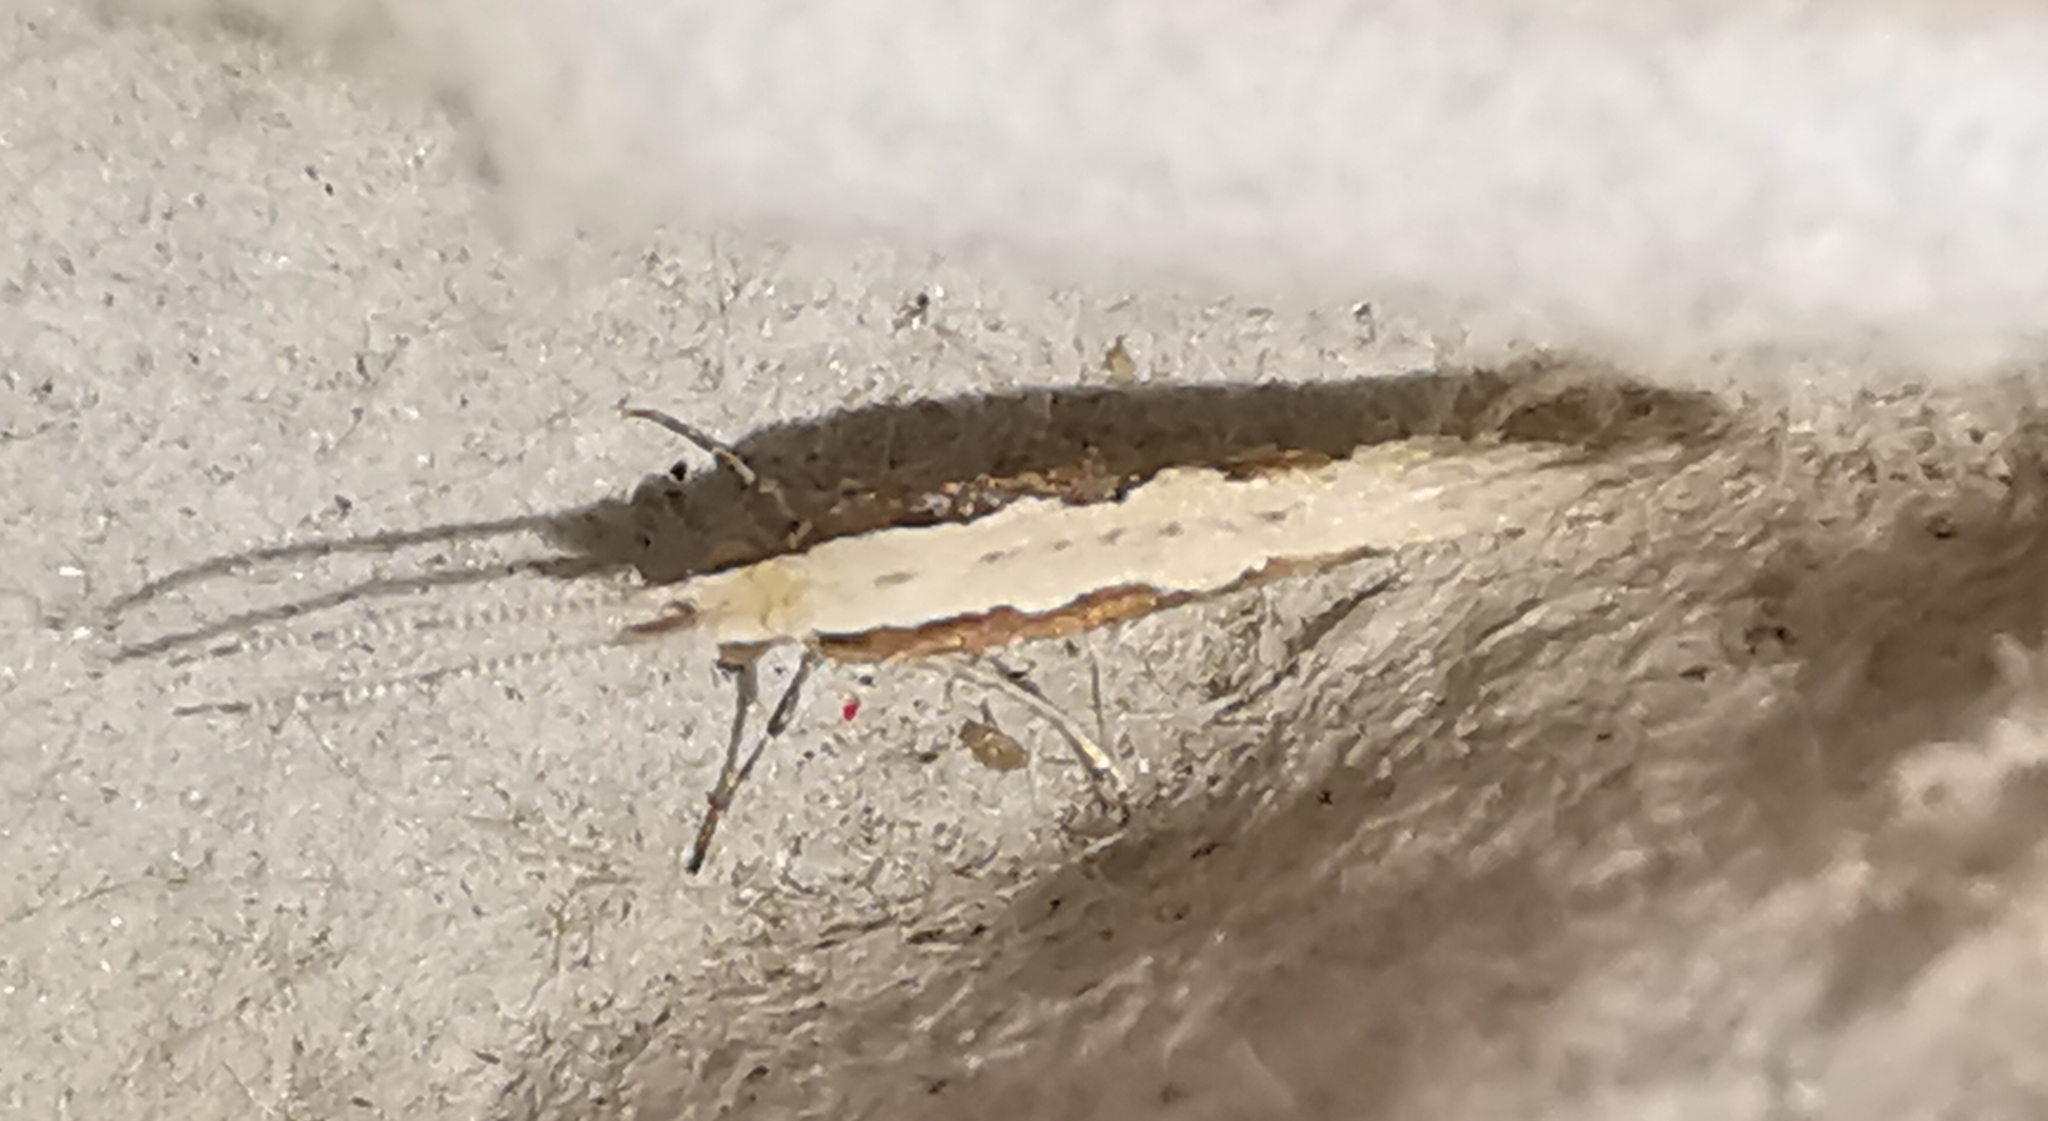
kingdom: Animalia
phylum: Arthropoda
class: Insecta
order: Lepidoptera
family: Plutellidae
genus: Plutella
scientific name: Plutella xylostella
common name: Diamond-back moth
